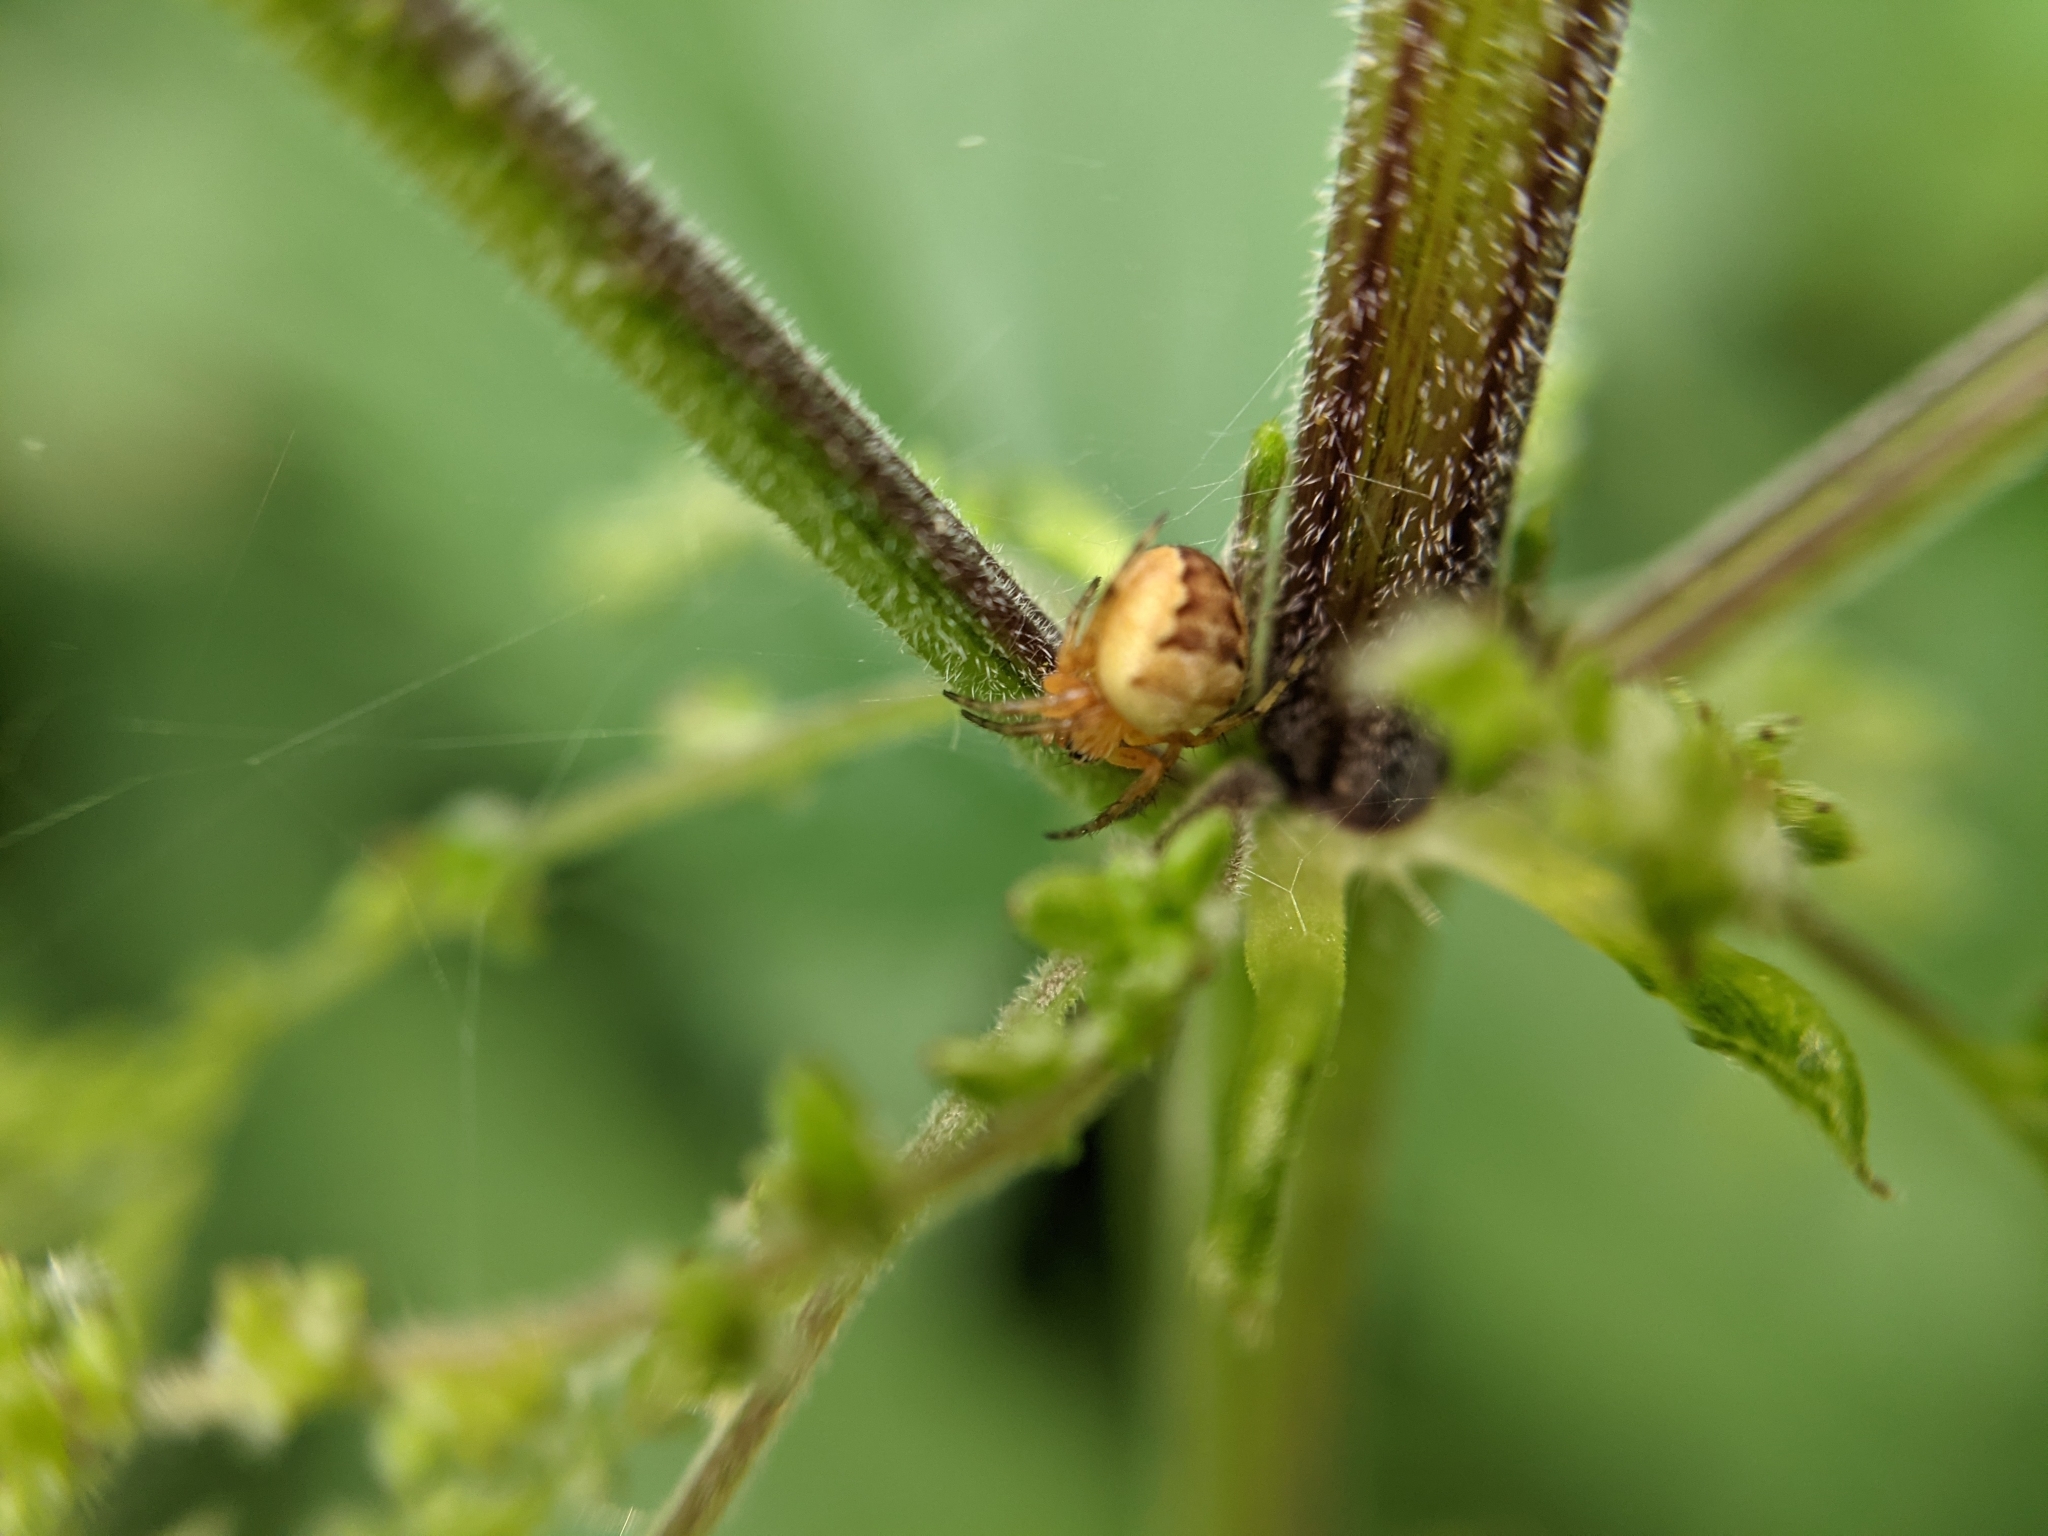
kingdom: Animalia
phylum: Arthropoda
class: Arachnida
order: Araneae
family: Araneidae
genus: Araneus
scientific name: Araneus diadematus
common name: Cross orbweaver
